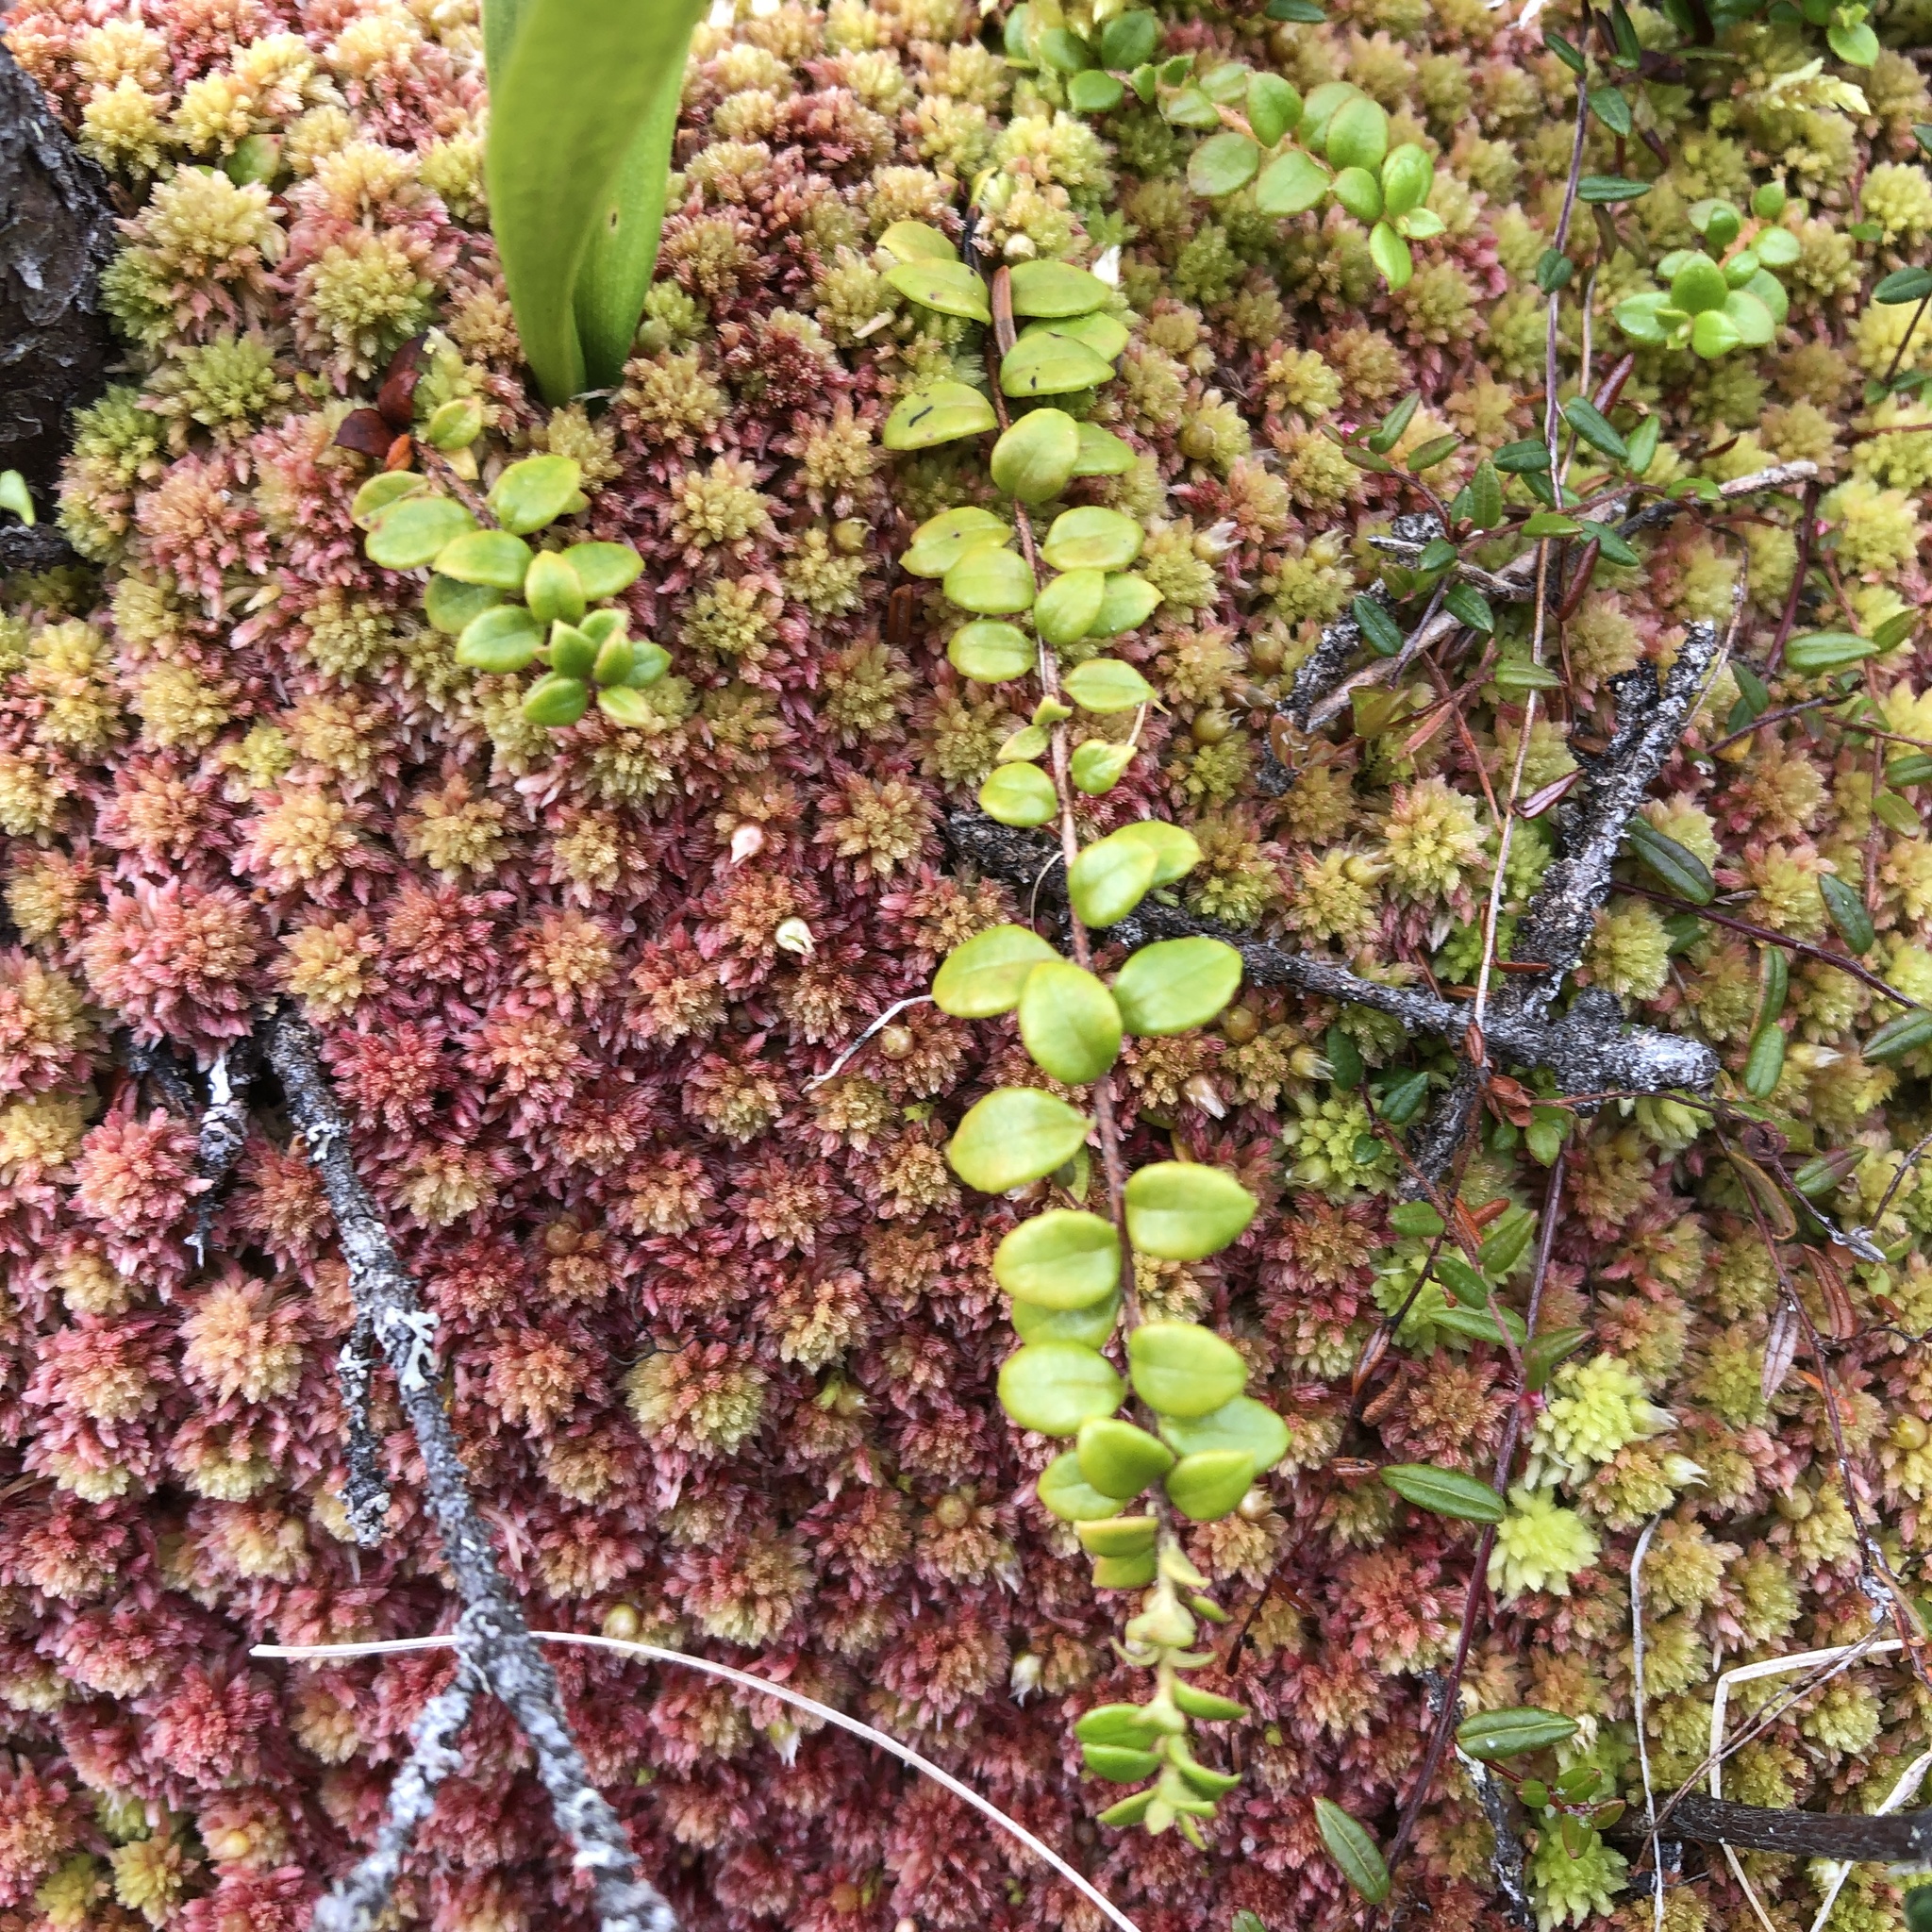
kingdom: Plantae
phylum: Tracheophyta
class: Magnoliopsida
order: Ericales
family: Ericaceae
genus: Gaultheria
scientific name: Gaultheria hispidula
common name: Cancer wintergreen
